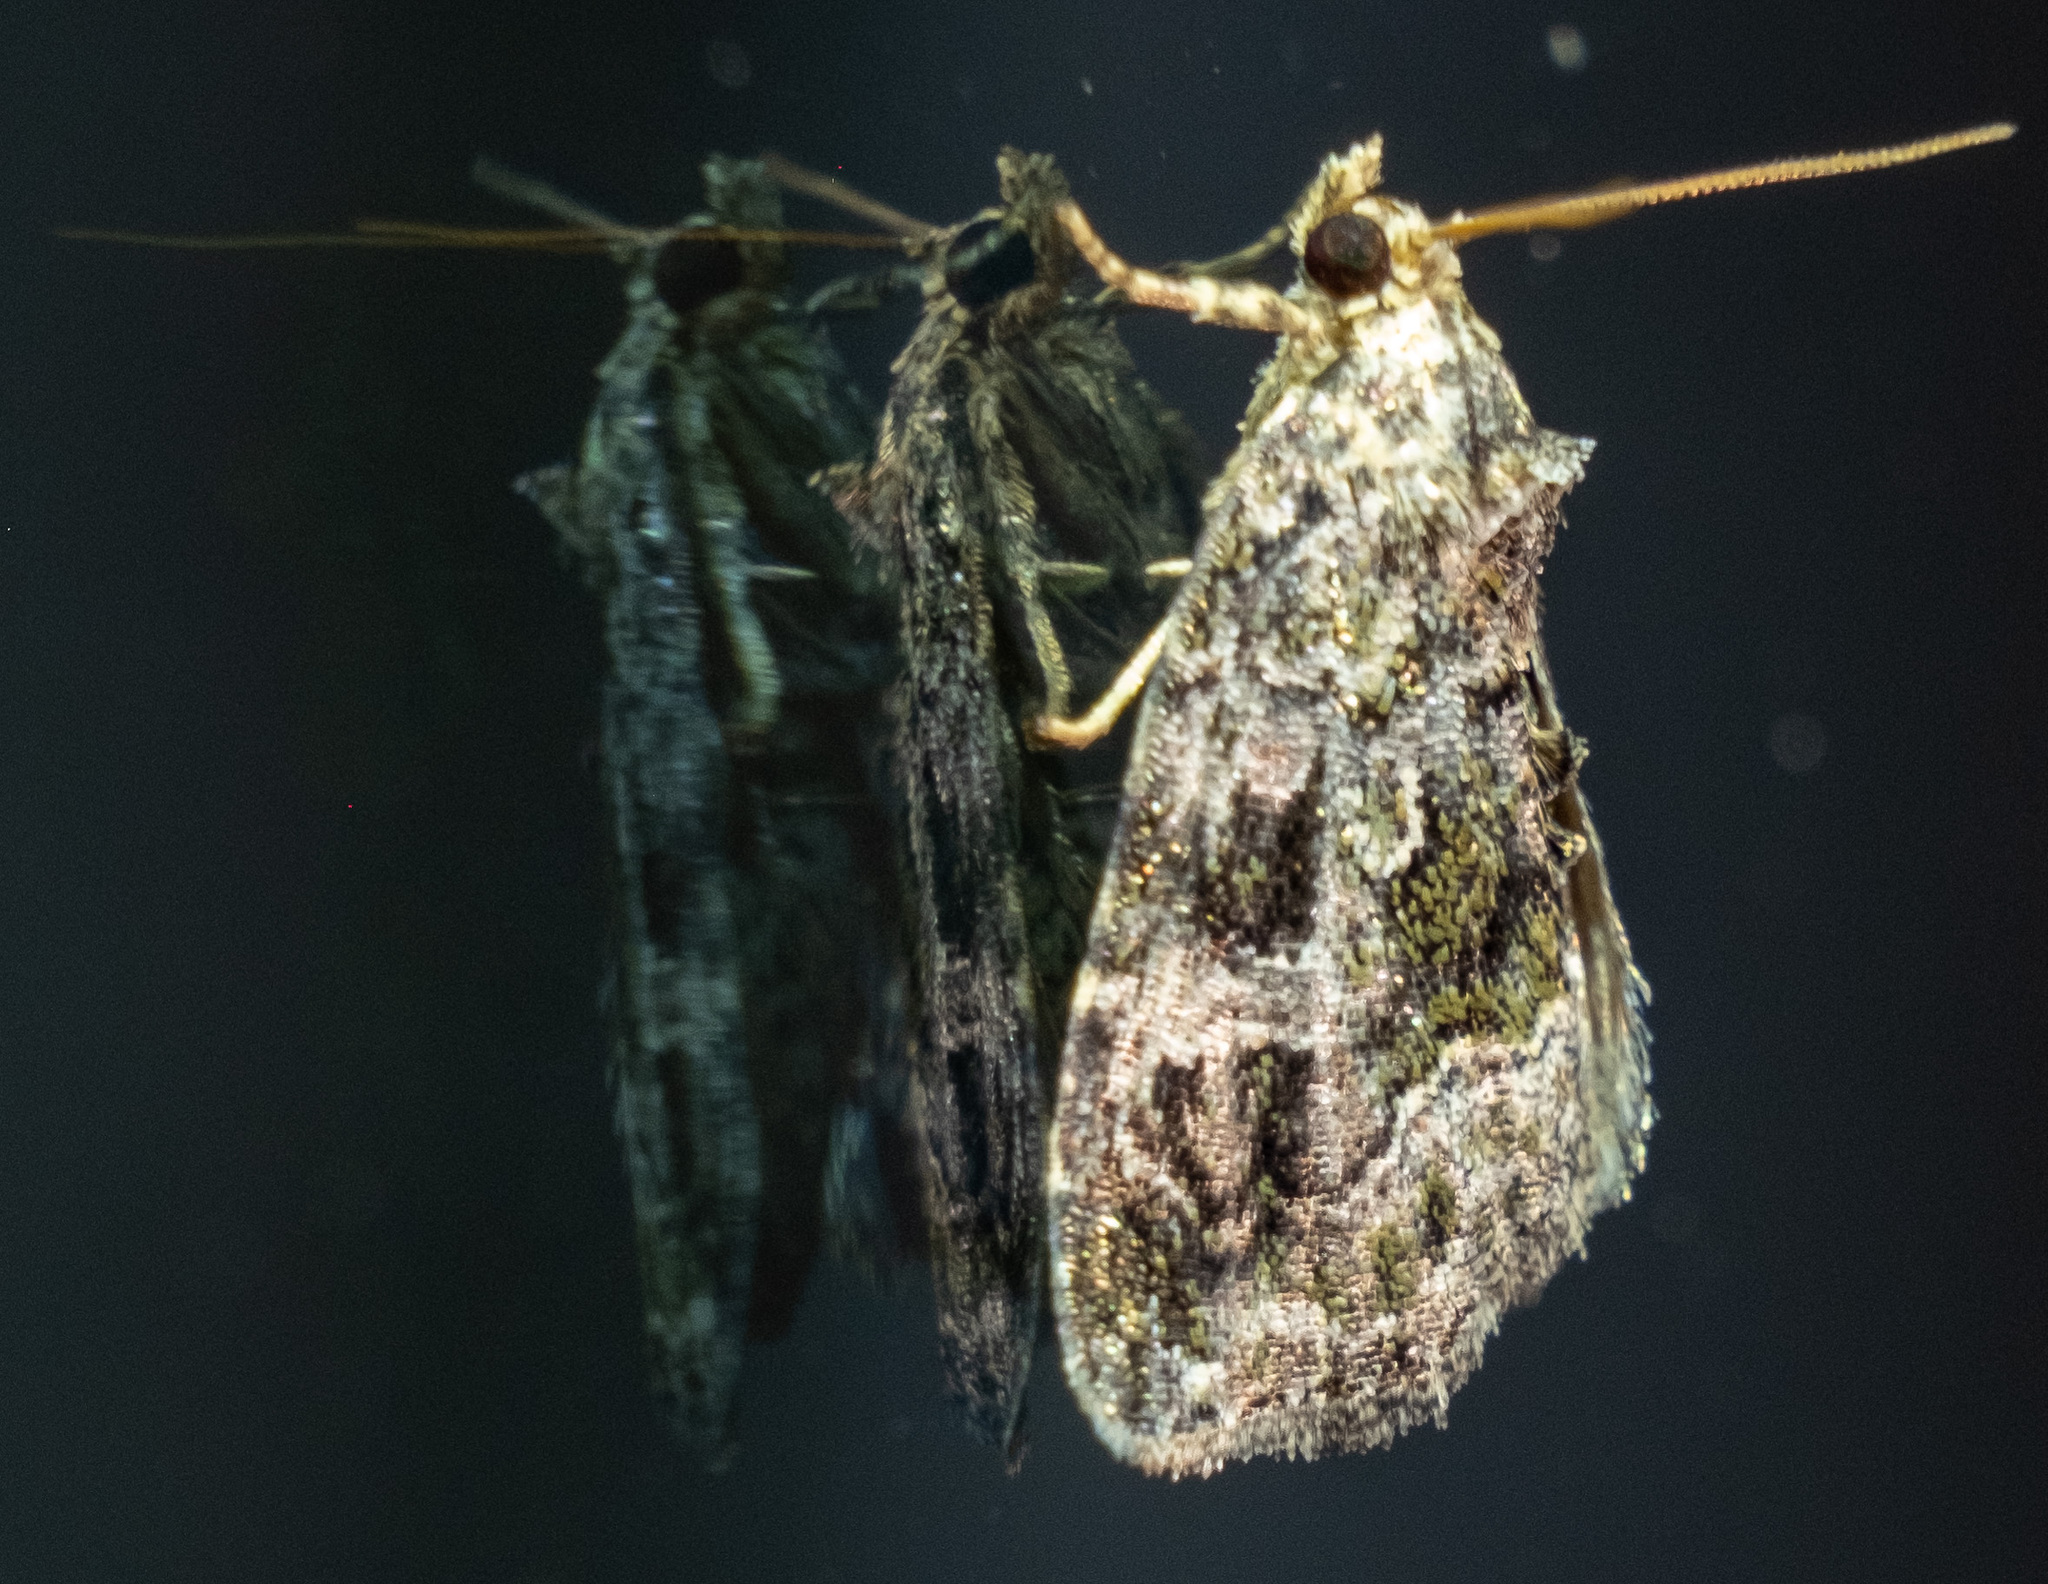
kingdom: Animalia
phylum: Arthropoda
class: Insecta
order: Lepidoptera
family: Noctuidae
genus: Protodeltote
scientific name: Protodeltote muscosula
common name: Large mossy glyph
